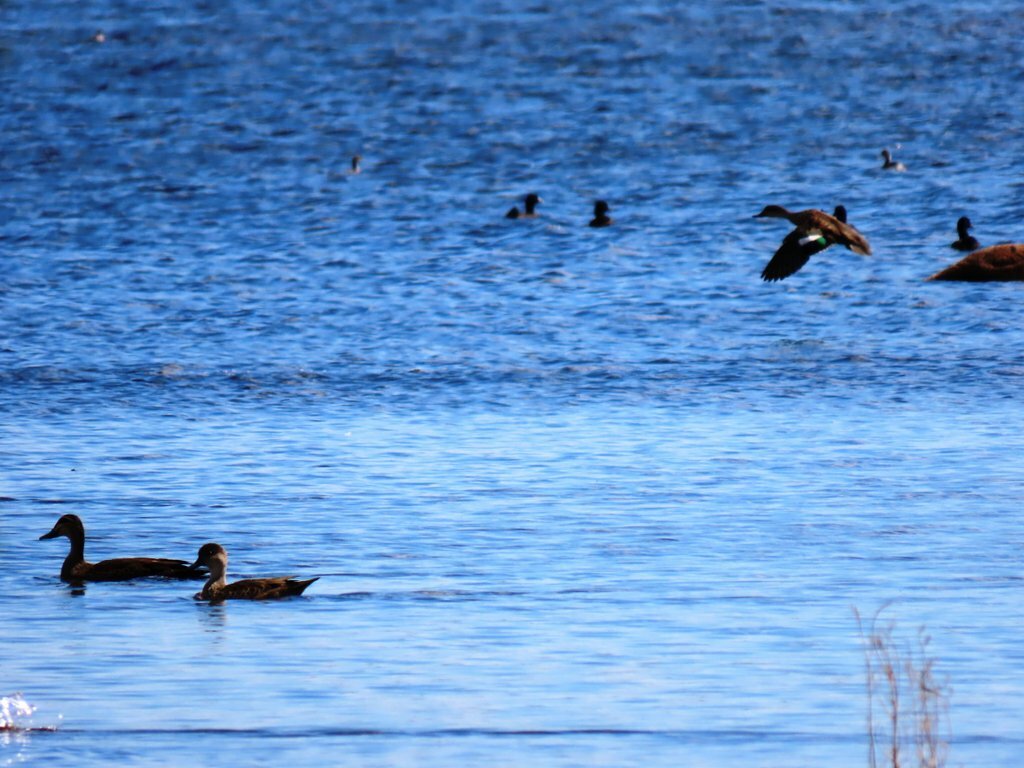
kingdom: Animalia
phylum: Chordata
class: Aves
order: Anseriformes
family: Anatidae
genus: Anas
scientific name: Anas castanea
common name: Chestnut teal
